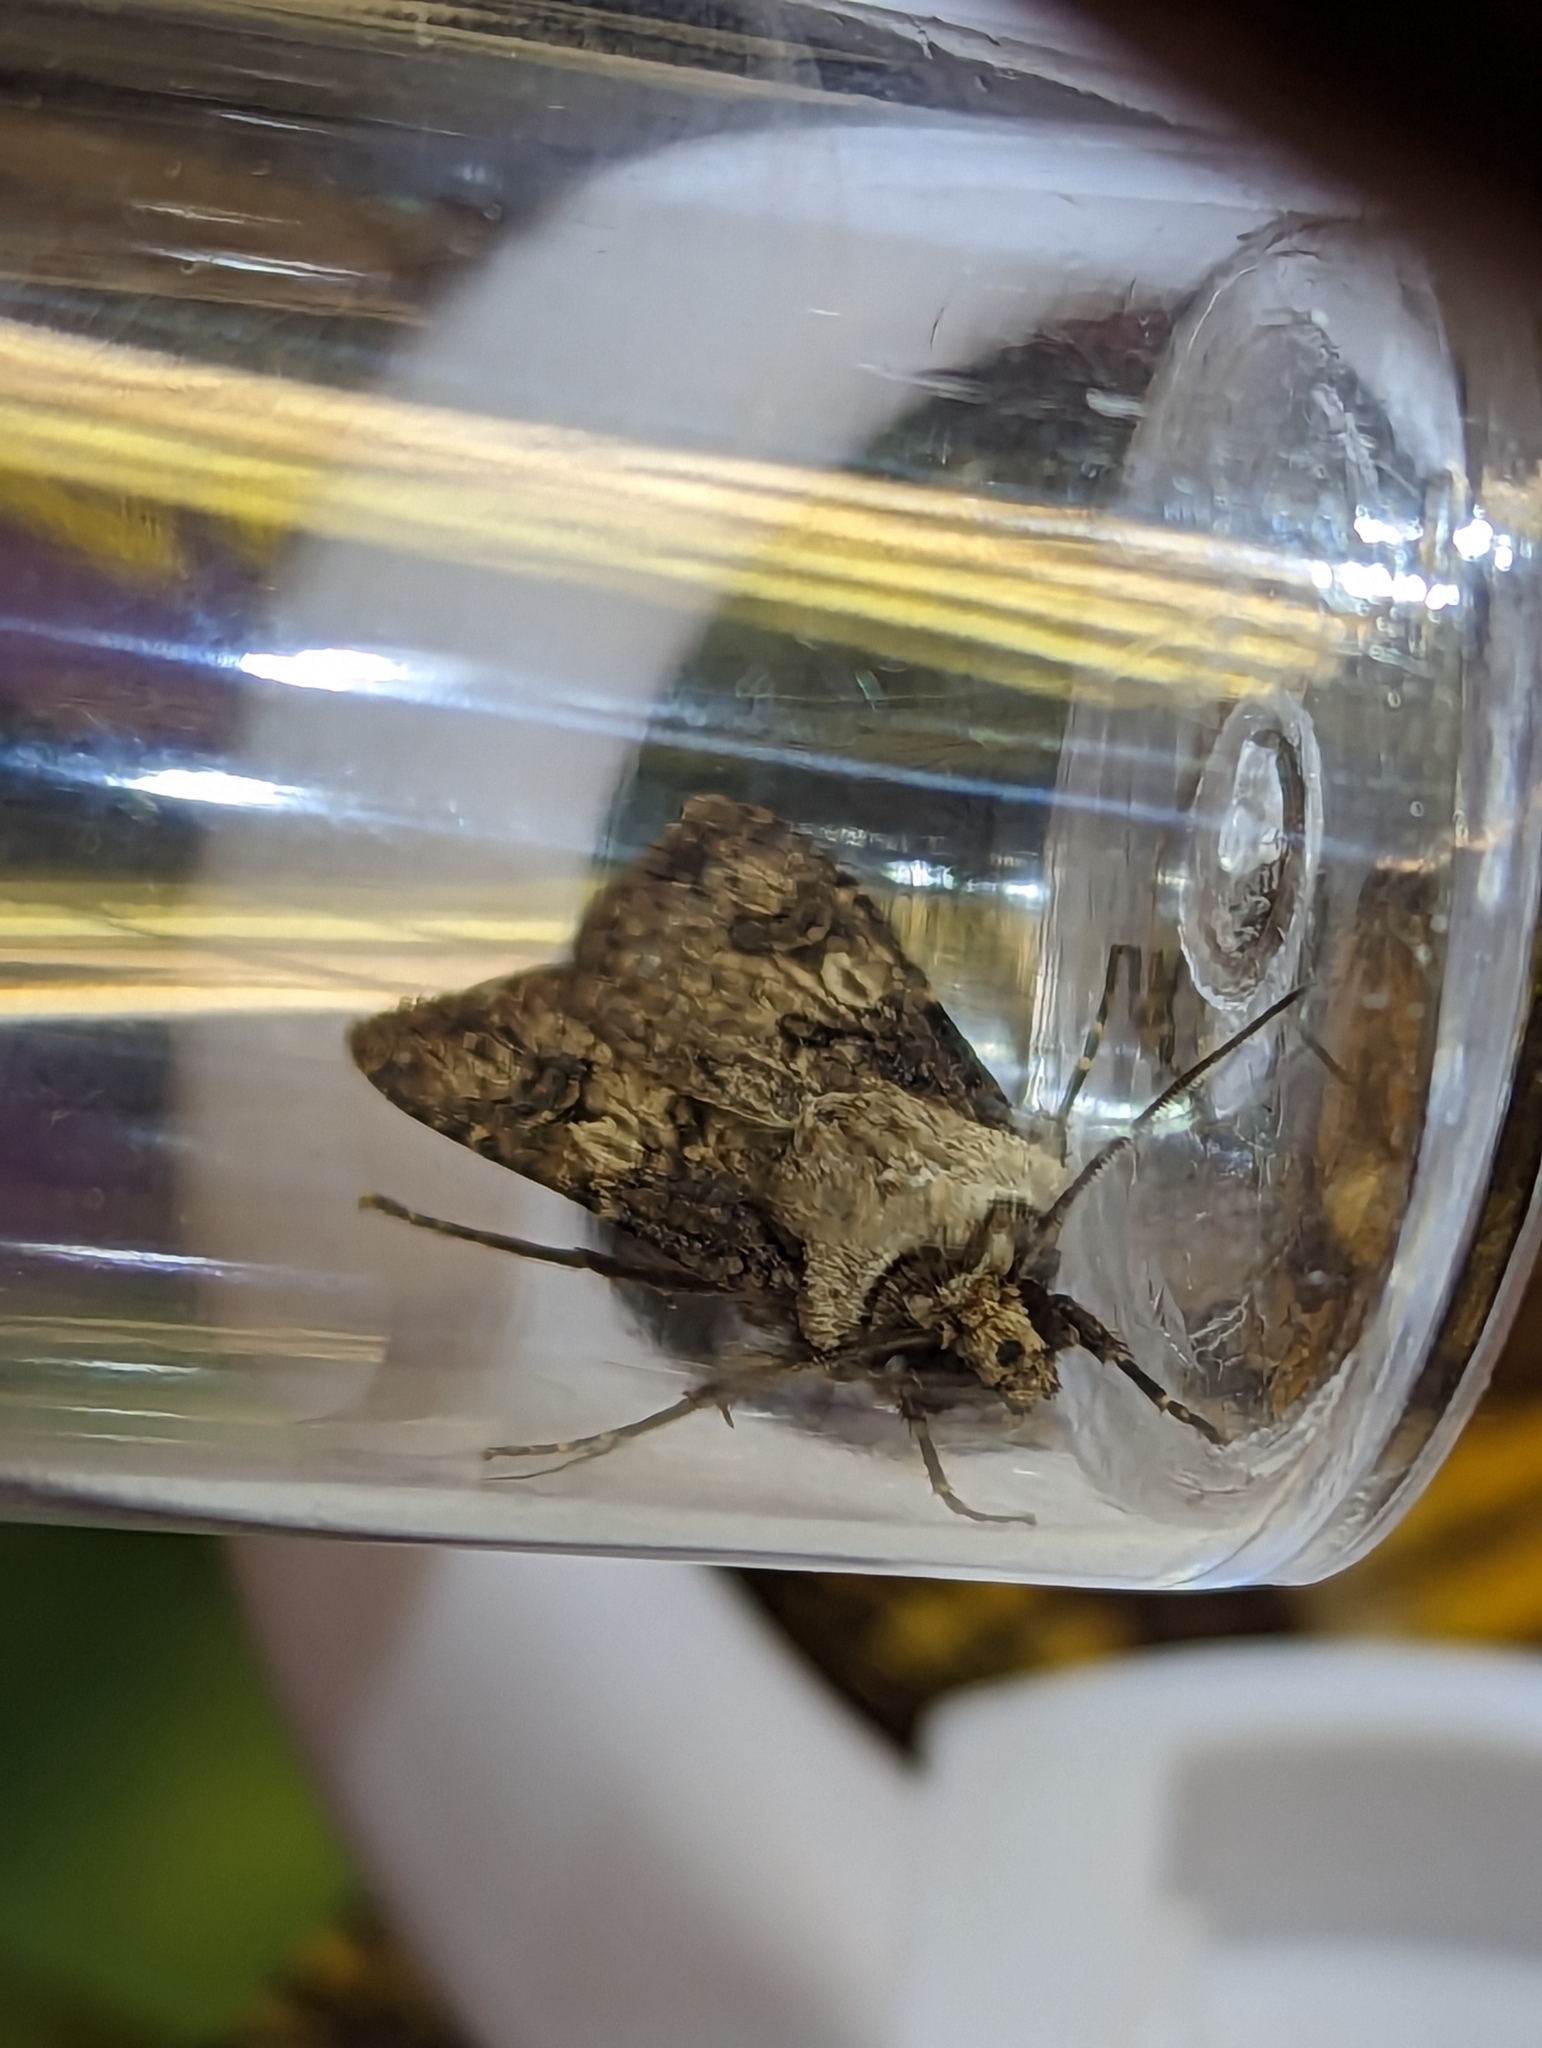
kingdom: Animalia
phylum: Arthropoda
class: Insecta
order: Lepidoptera
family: Noctuidae
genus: Agrotis
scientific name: Agrotis puta
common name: Shuttle-shaped dart
